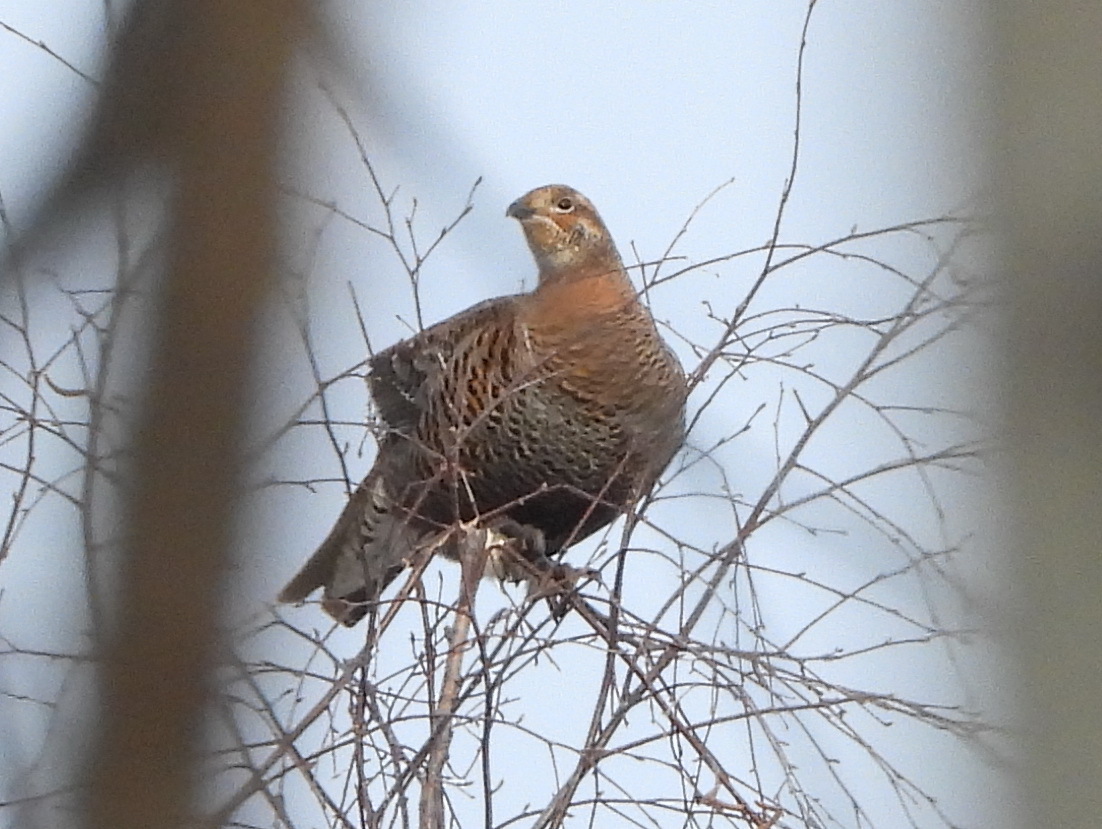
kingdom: Animalia
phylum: Chordata
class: Aves
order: Galliformes
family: Phasianidae
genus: Lyrurus
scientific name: Lyrurus tetrix
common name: Black grouse
